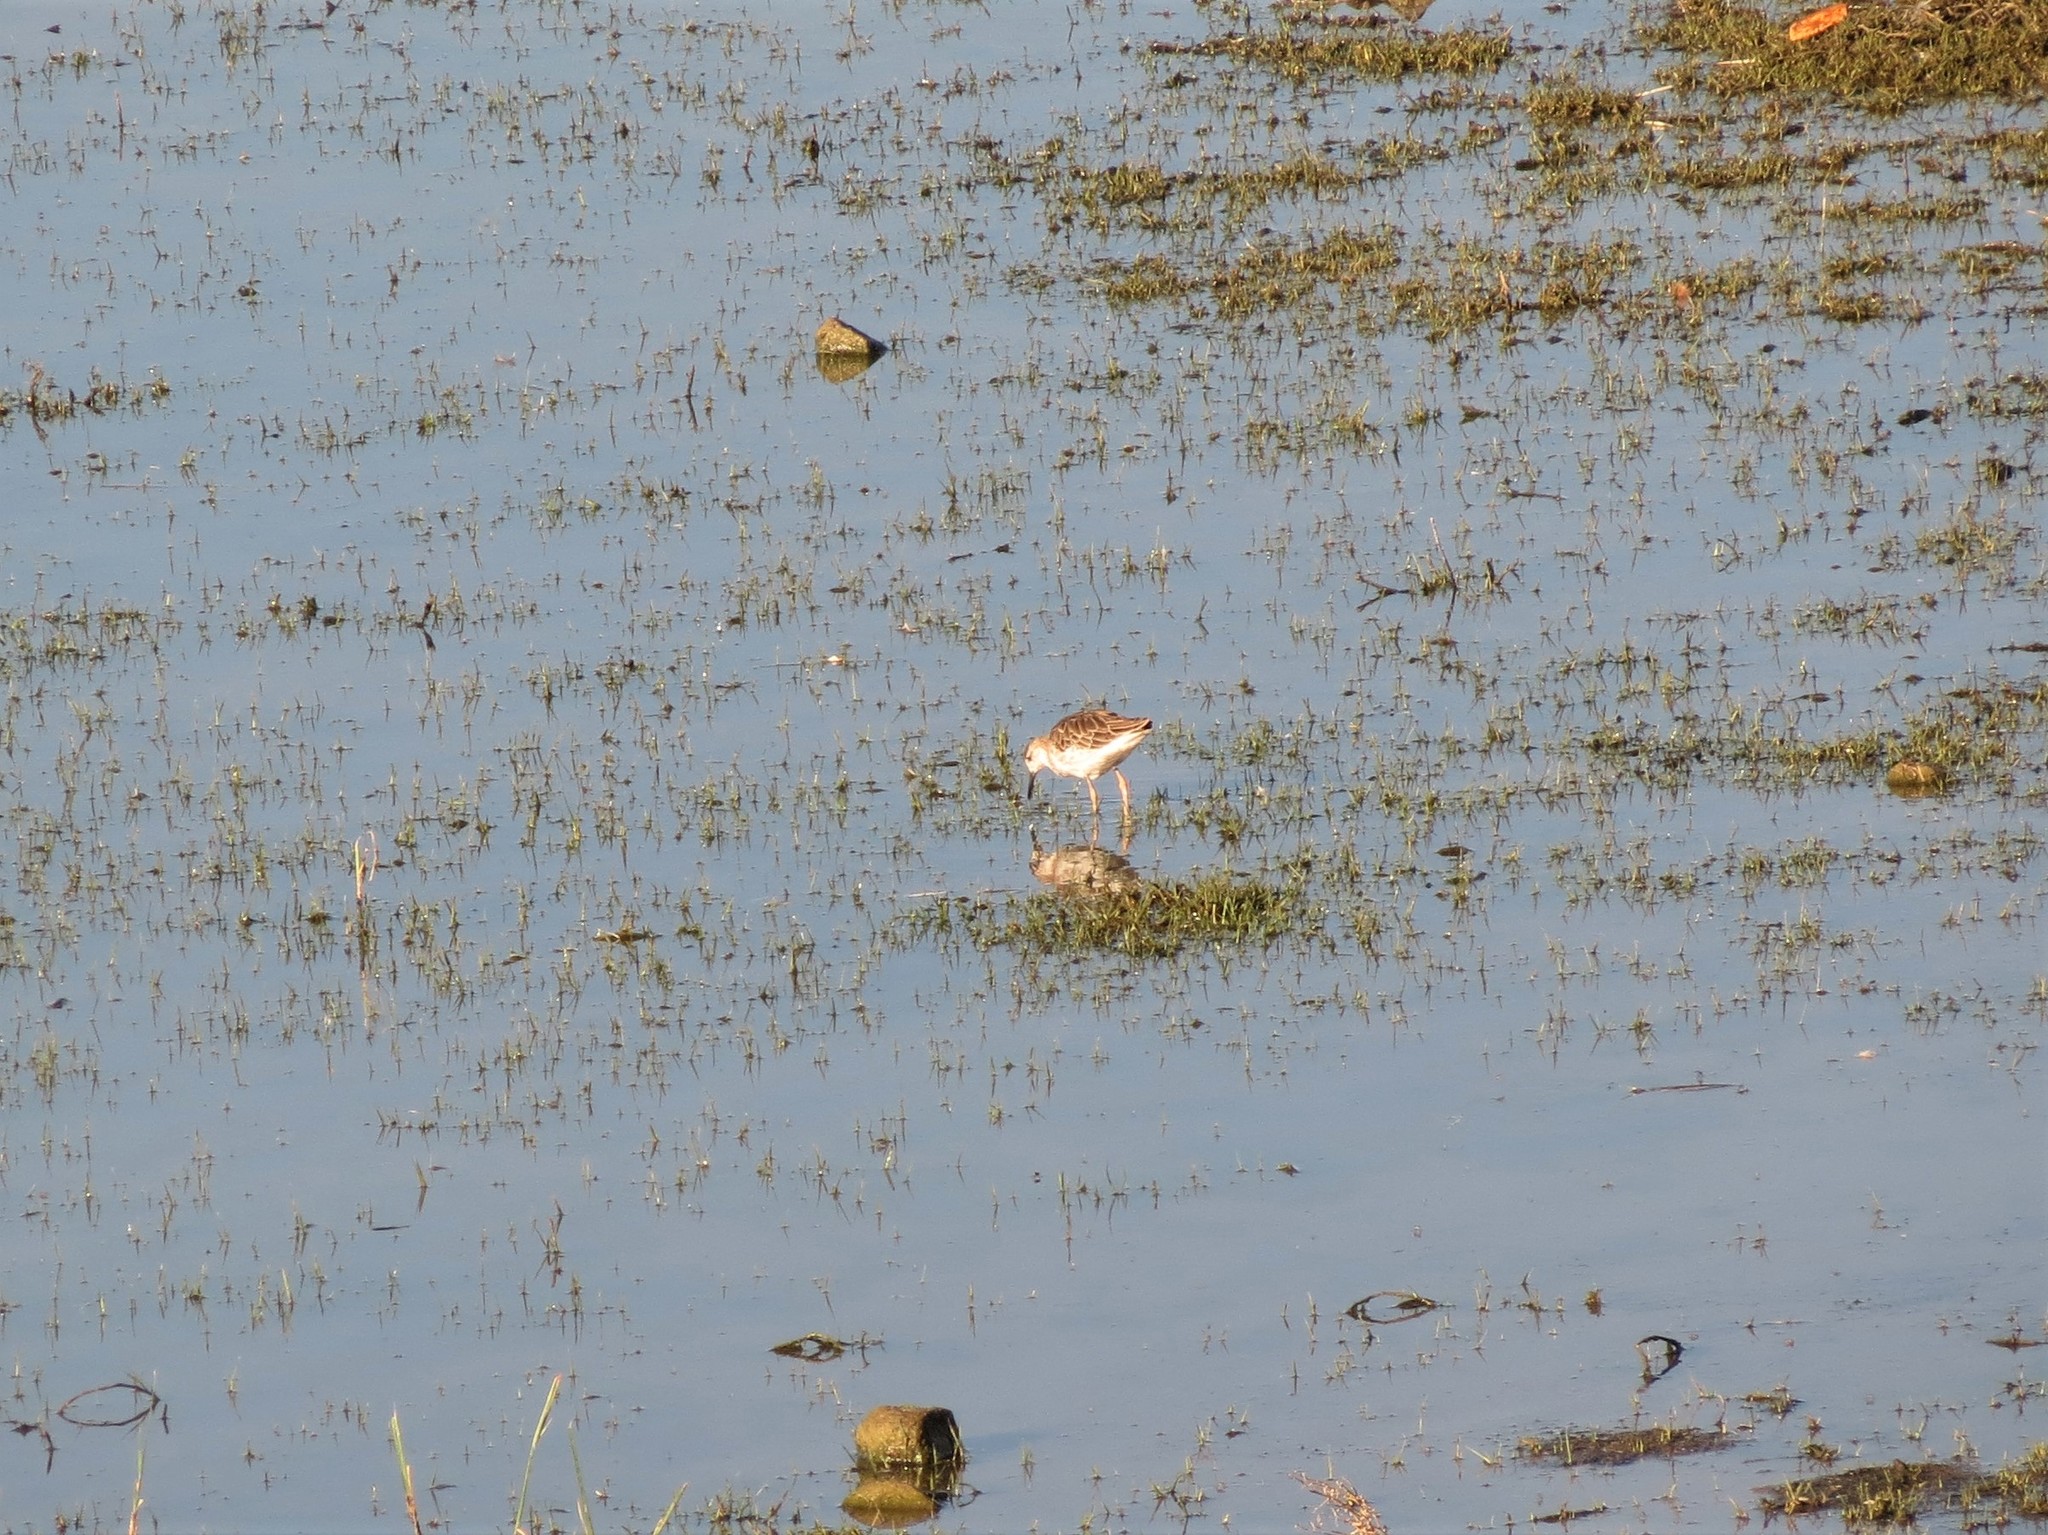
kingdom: Animalia
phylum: Chordata
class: Aves
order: Charadriiformes
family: Scolopacidae
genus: Calidris
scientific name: Calidris pugnax
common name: Ruff
